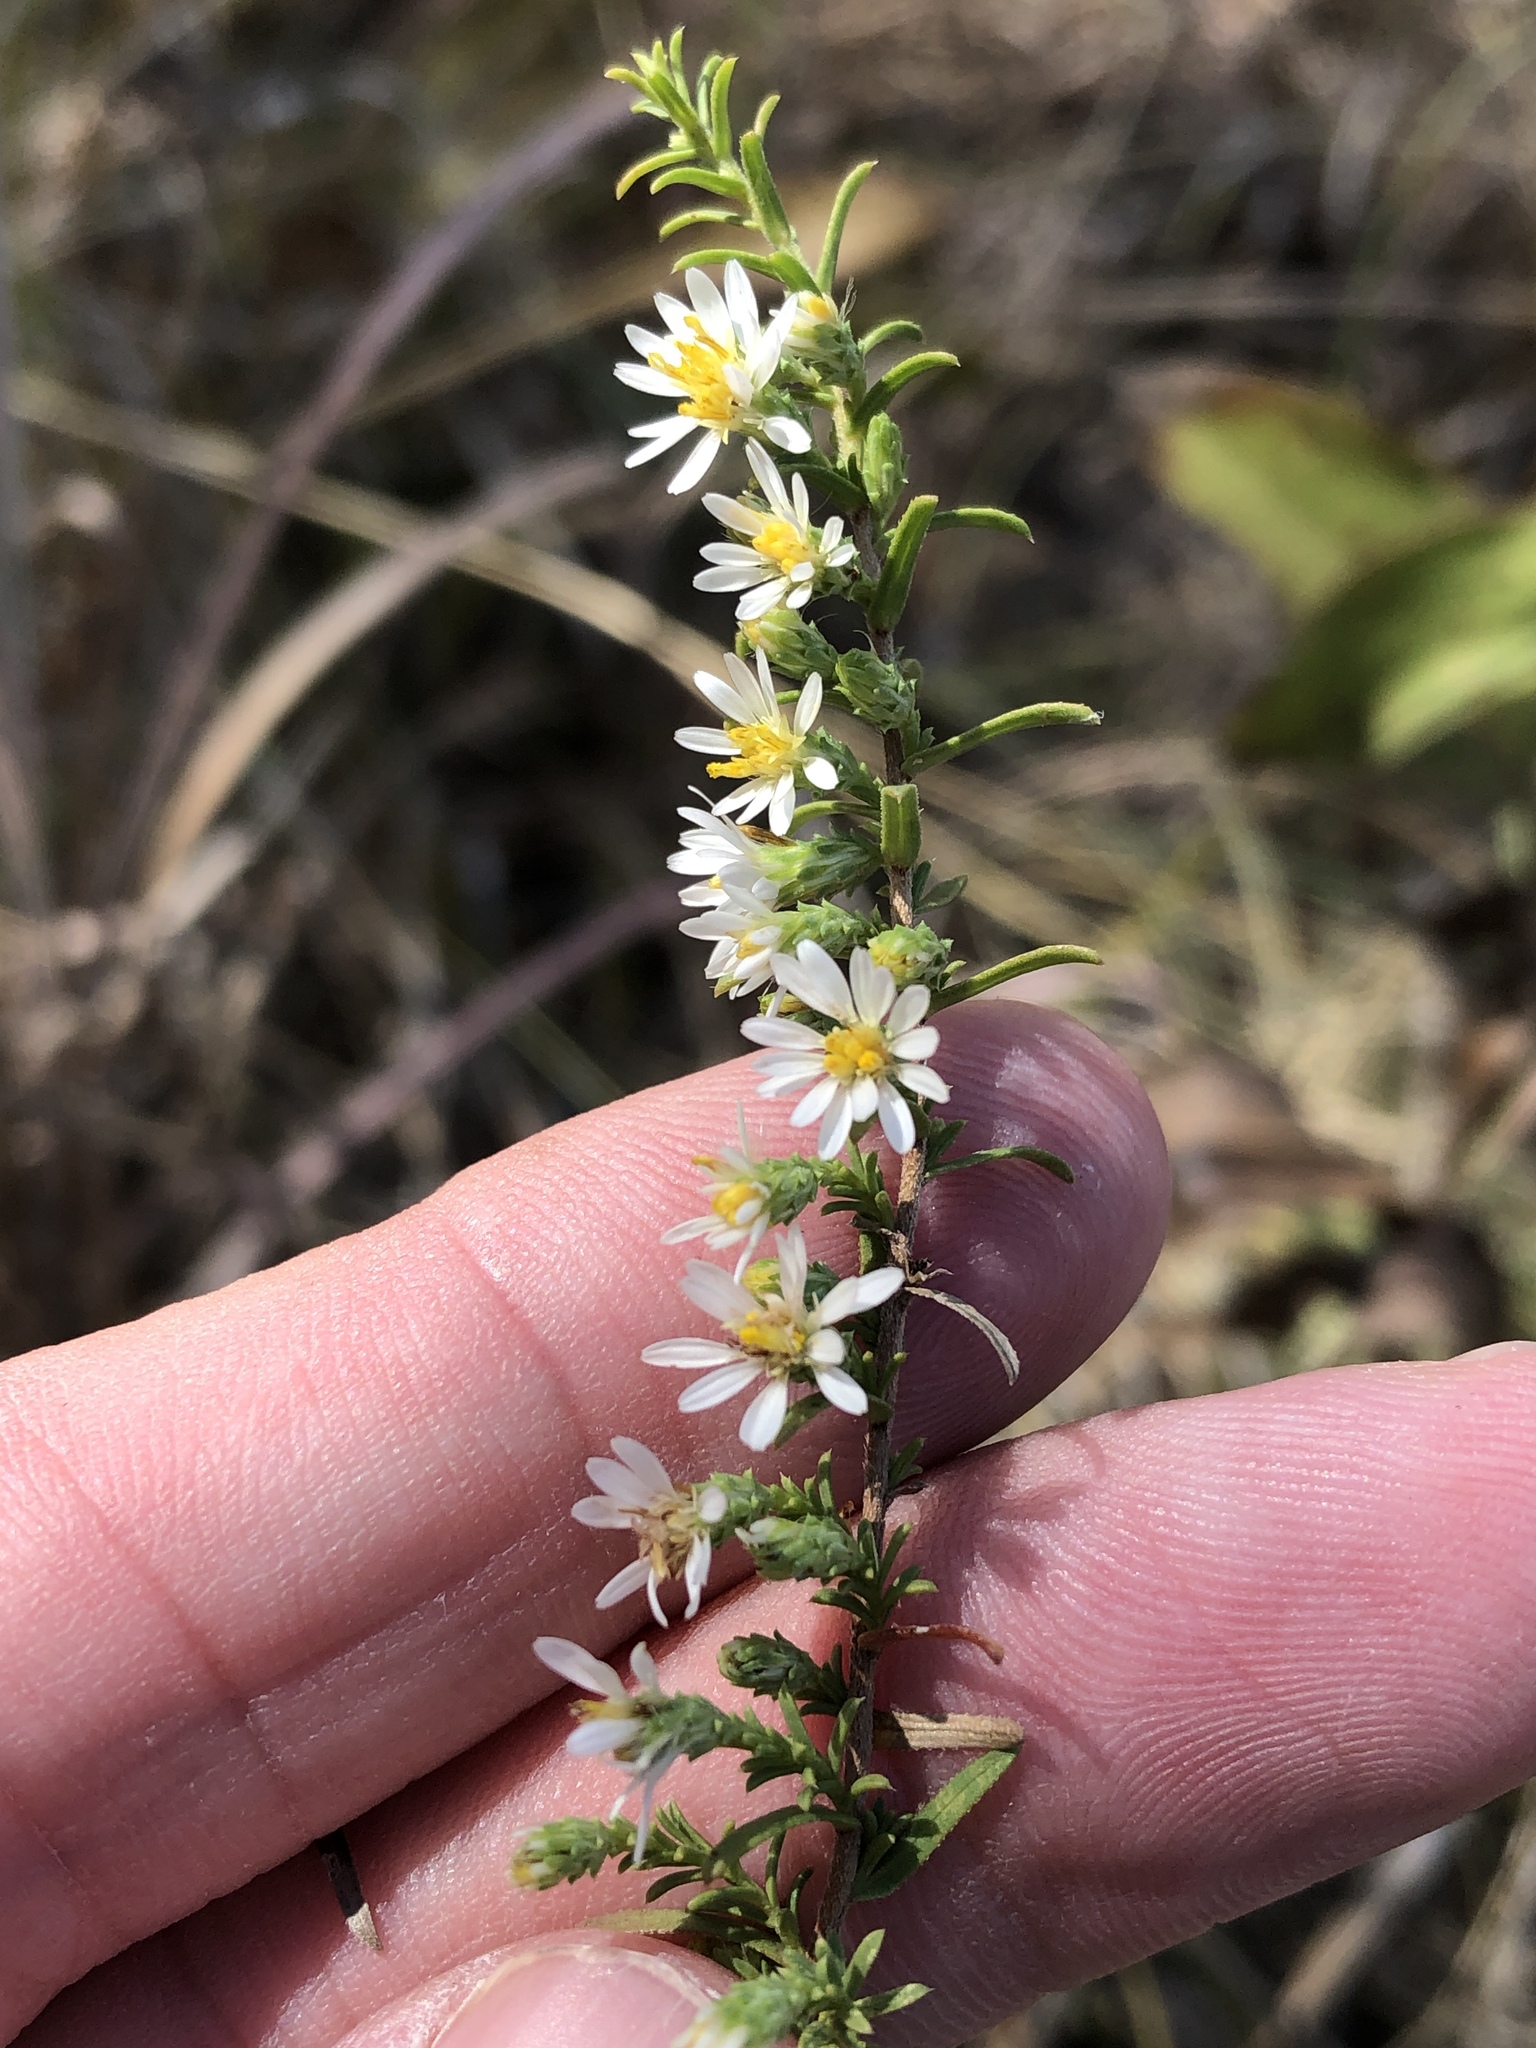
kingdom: Plantae
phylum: Tracheophyta
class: Magnoliopsida
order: Asterales
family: Asteraceae
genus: Symphyotrichum
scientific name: Symphyotrichum ericoides
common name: Heath aster
